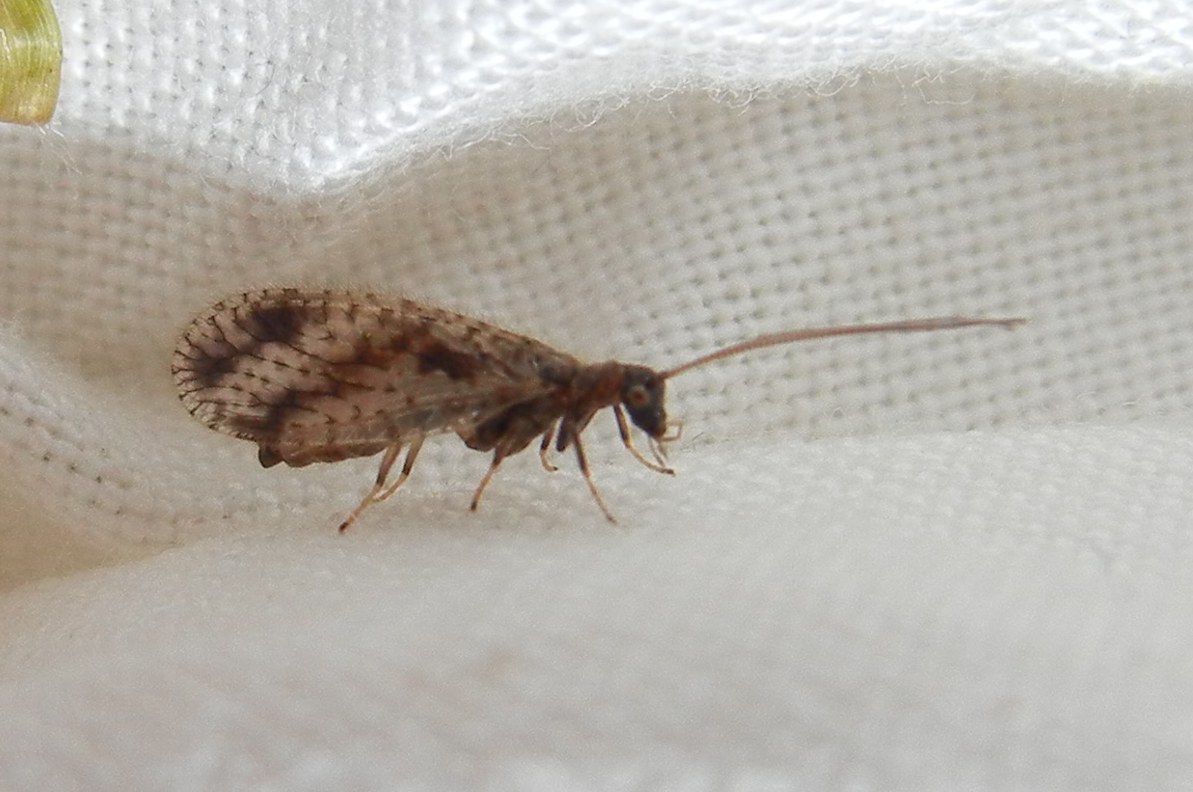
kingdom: Animalia
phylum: Arthropoda
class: Insecta
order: Neuroptera
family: Hemerobiidae
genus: Micromus
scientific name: Micromus variegatus
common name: Brown lacewing
